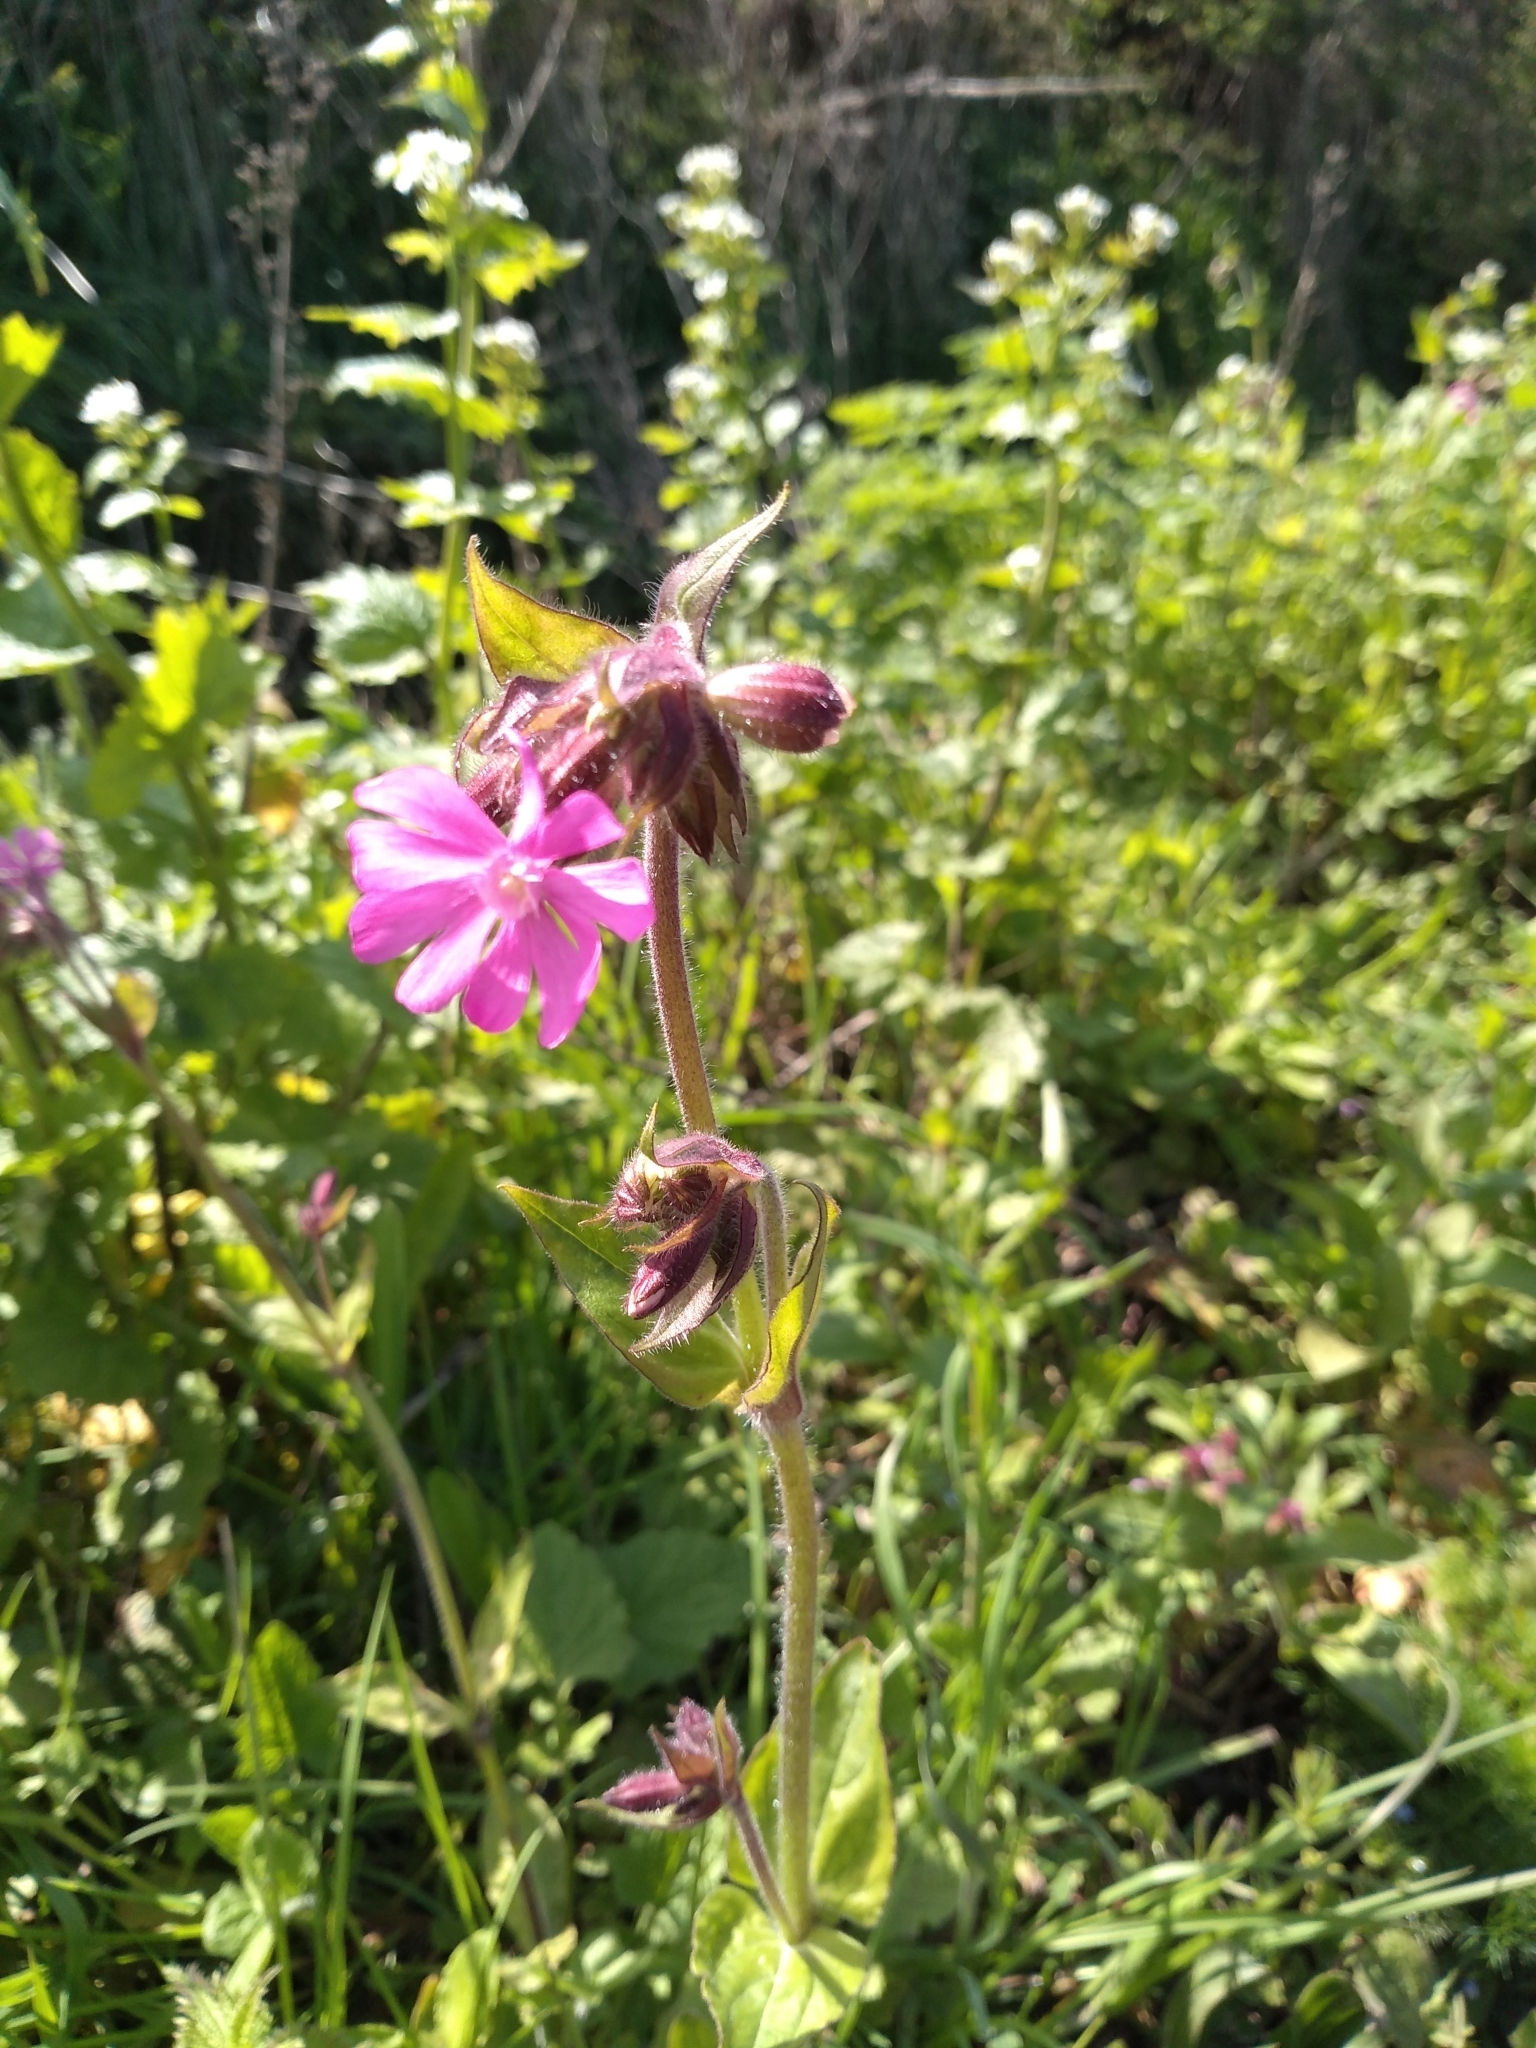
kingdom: Plantae
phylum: Tracheophyta
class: Magnoliopsida
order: Caryophyllales
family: Caryophyllaceae
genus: Silene
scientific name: Silene dioica
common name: Red campion
